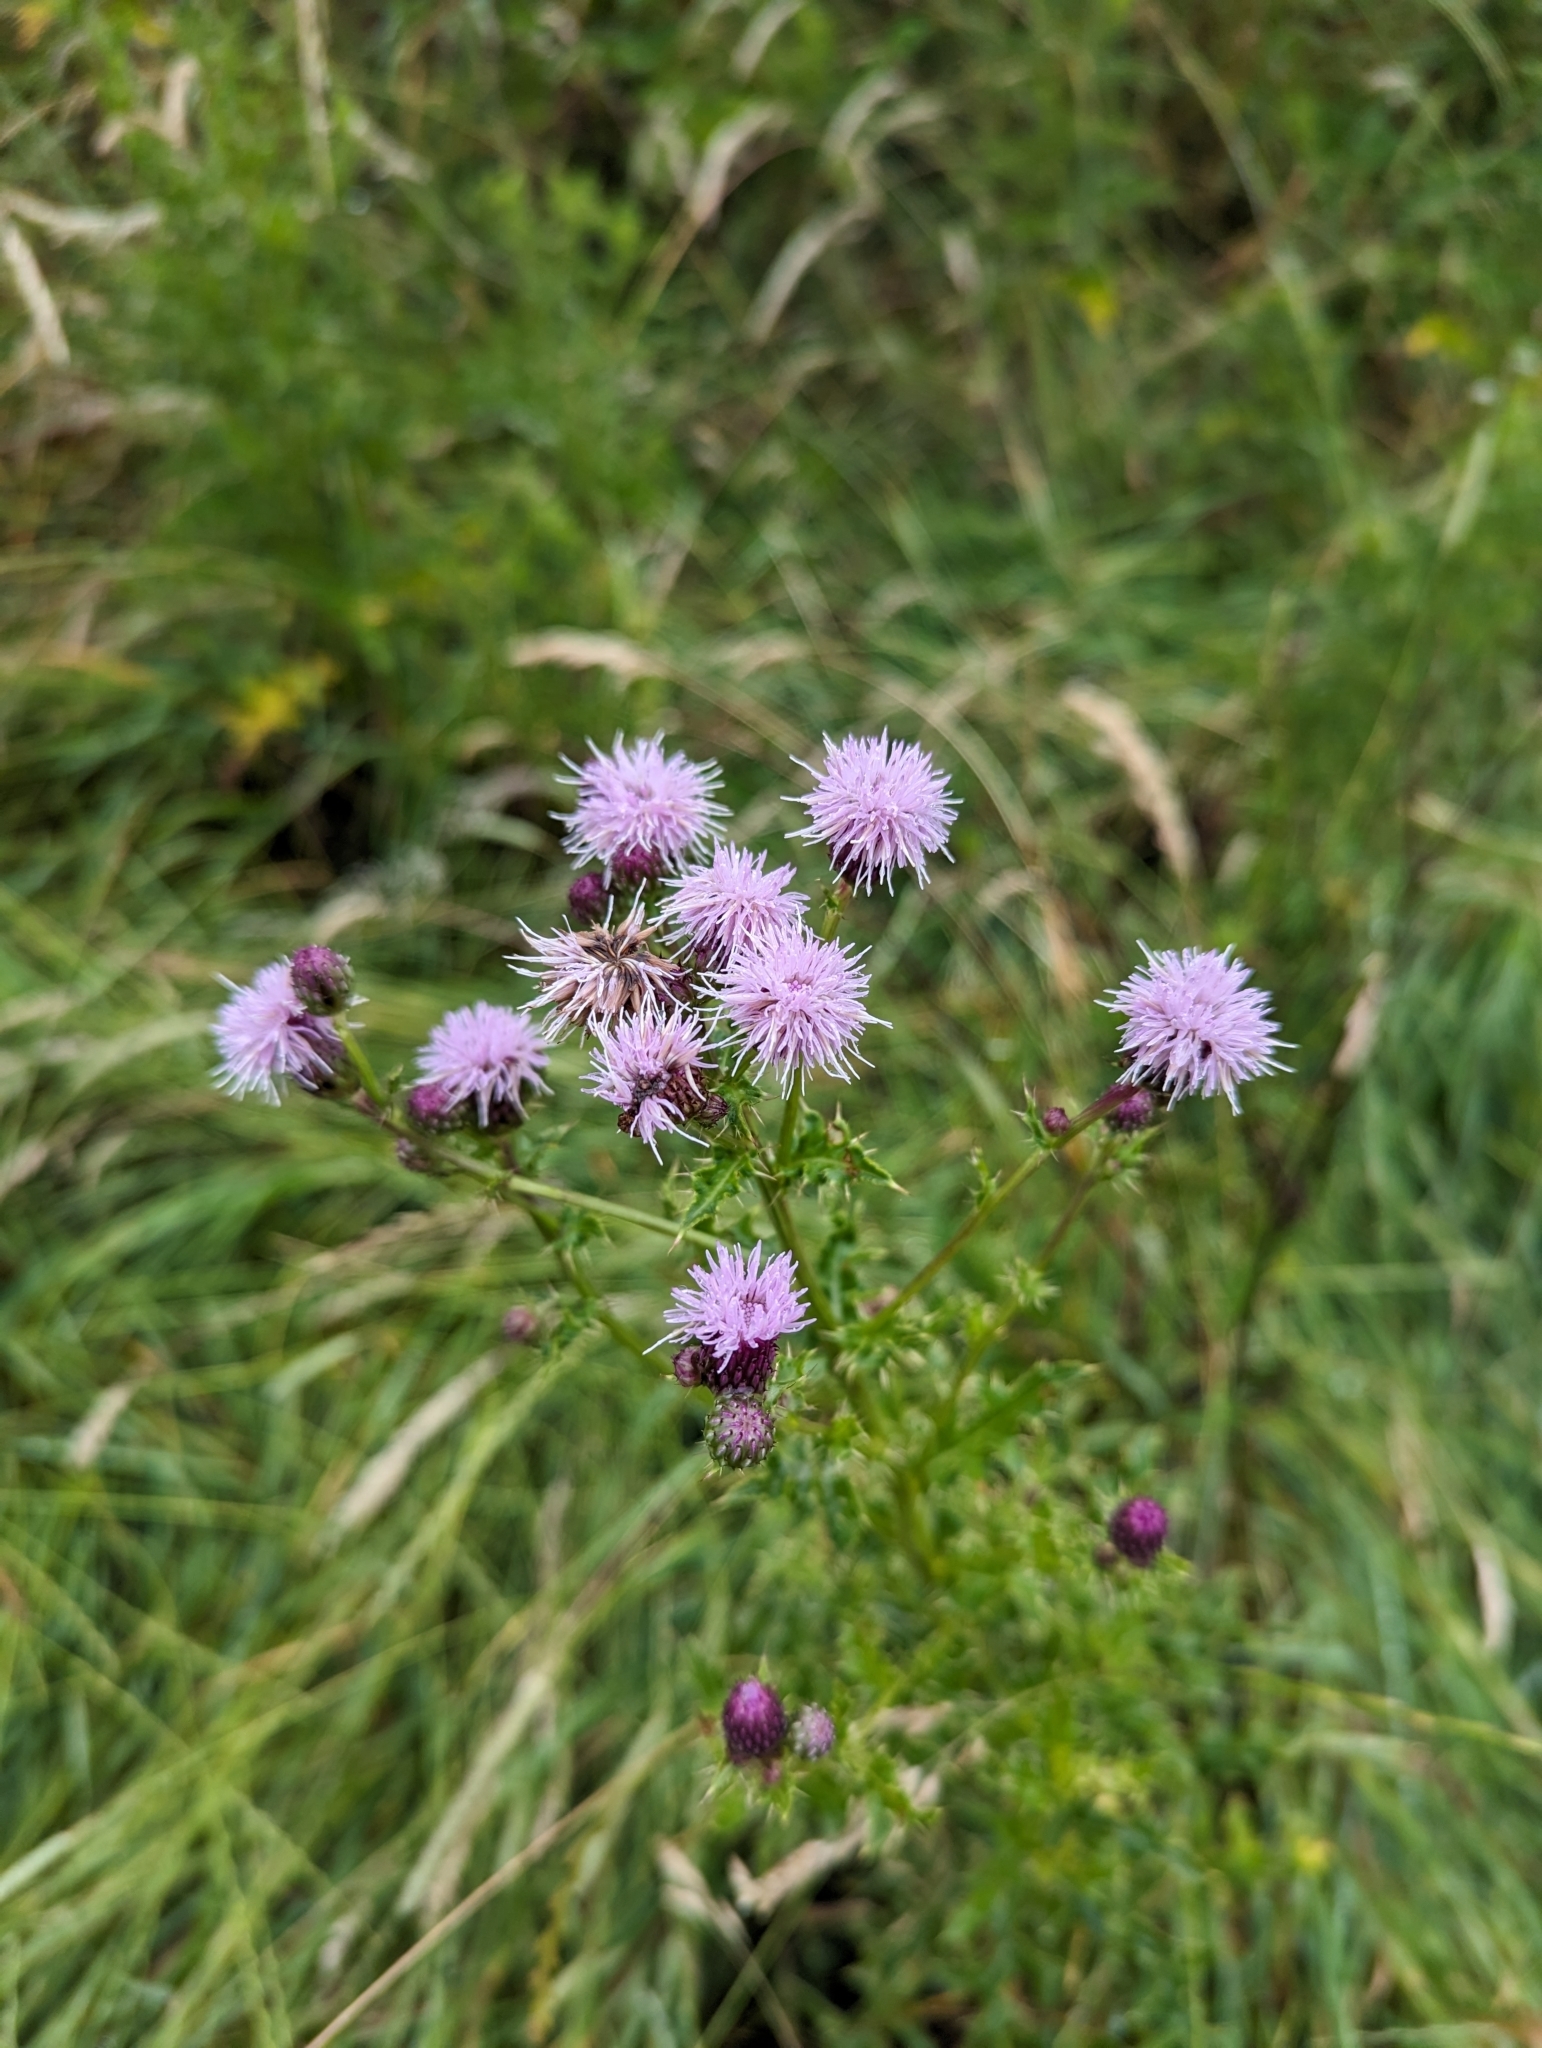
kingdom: Plantae
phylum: Tracheophyta
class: Magnoliopsida
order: Asterales
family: Asteraceae
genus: Cirsium
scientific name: Cirsium arvense
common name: Creeping thistle
